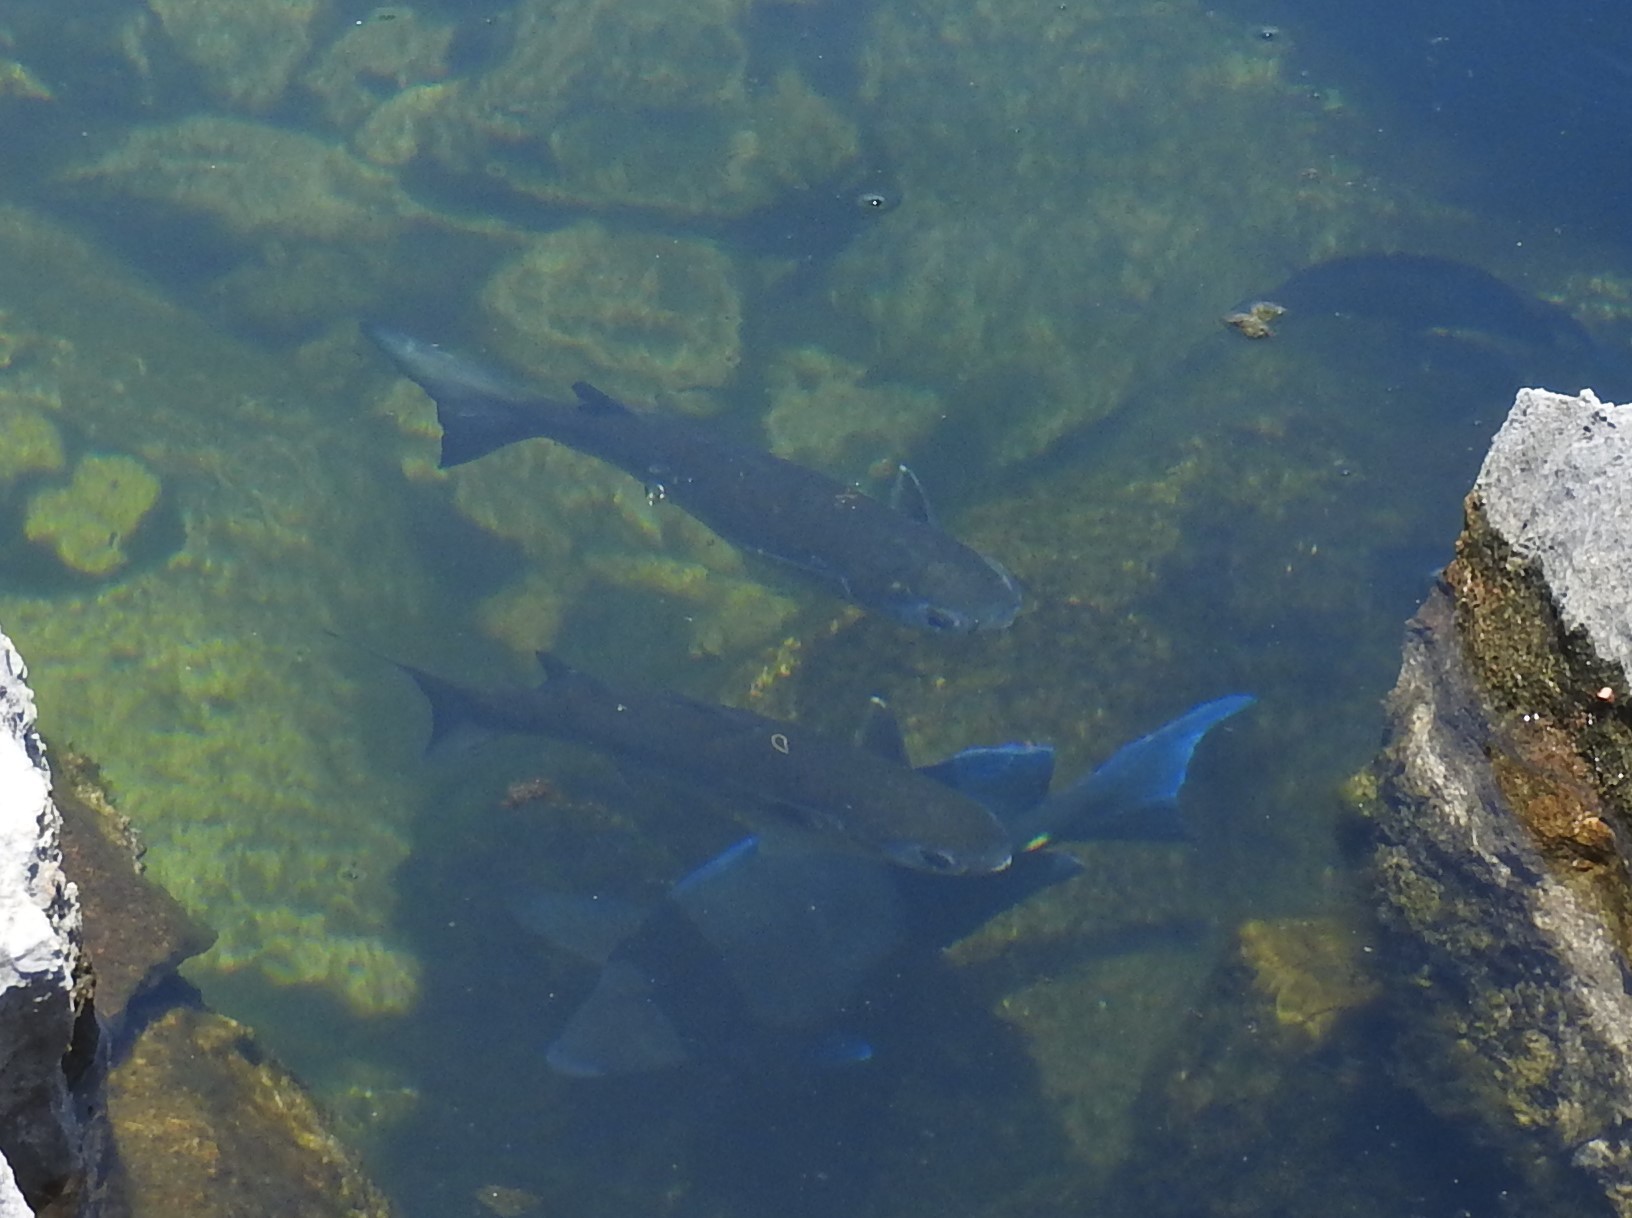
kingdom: Animalia
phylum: Chordata
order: Mugiliformes
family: Mugilidae
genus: Mugil
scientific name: Mugil cephalus
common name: Grey mullet
